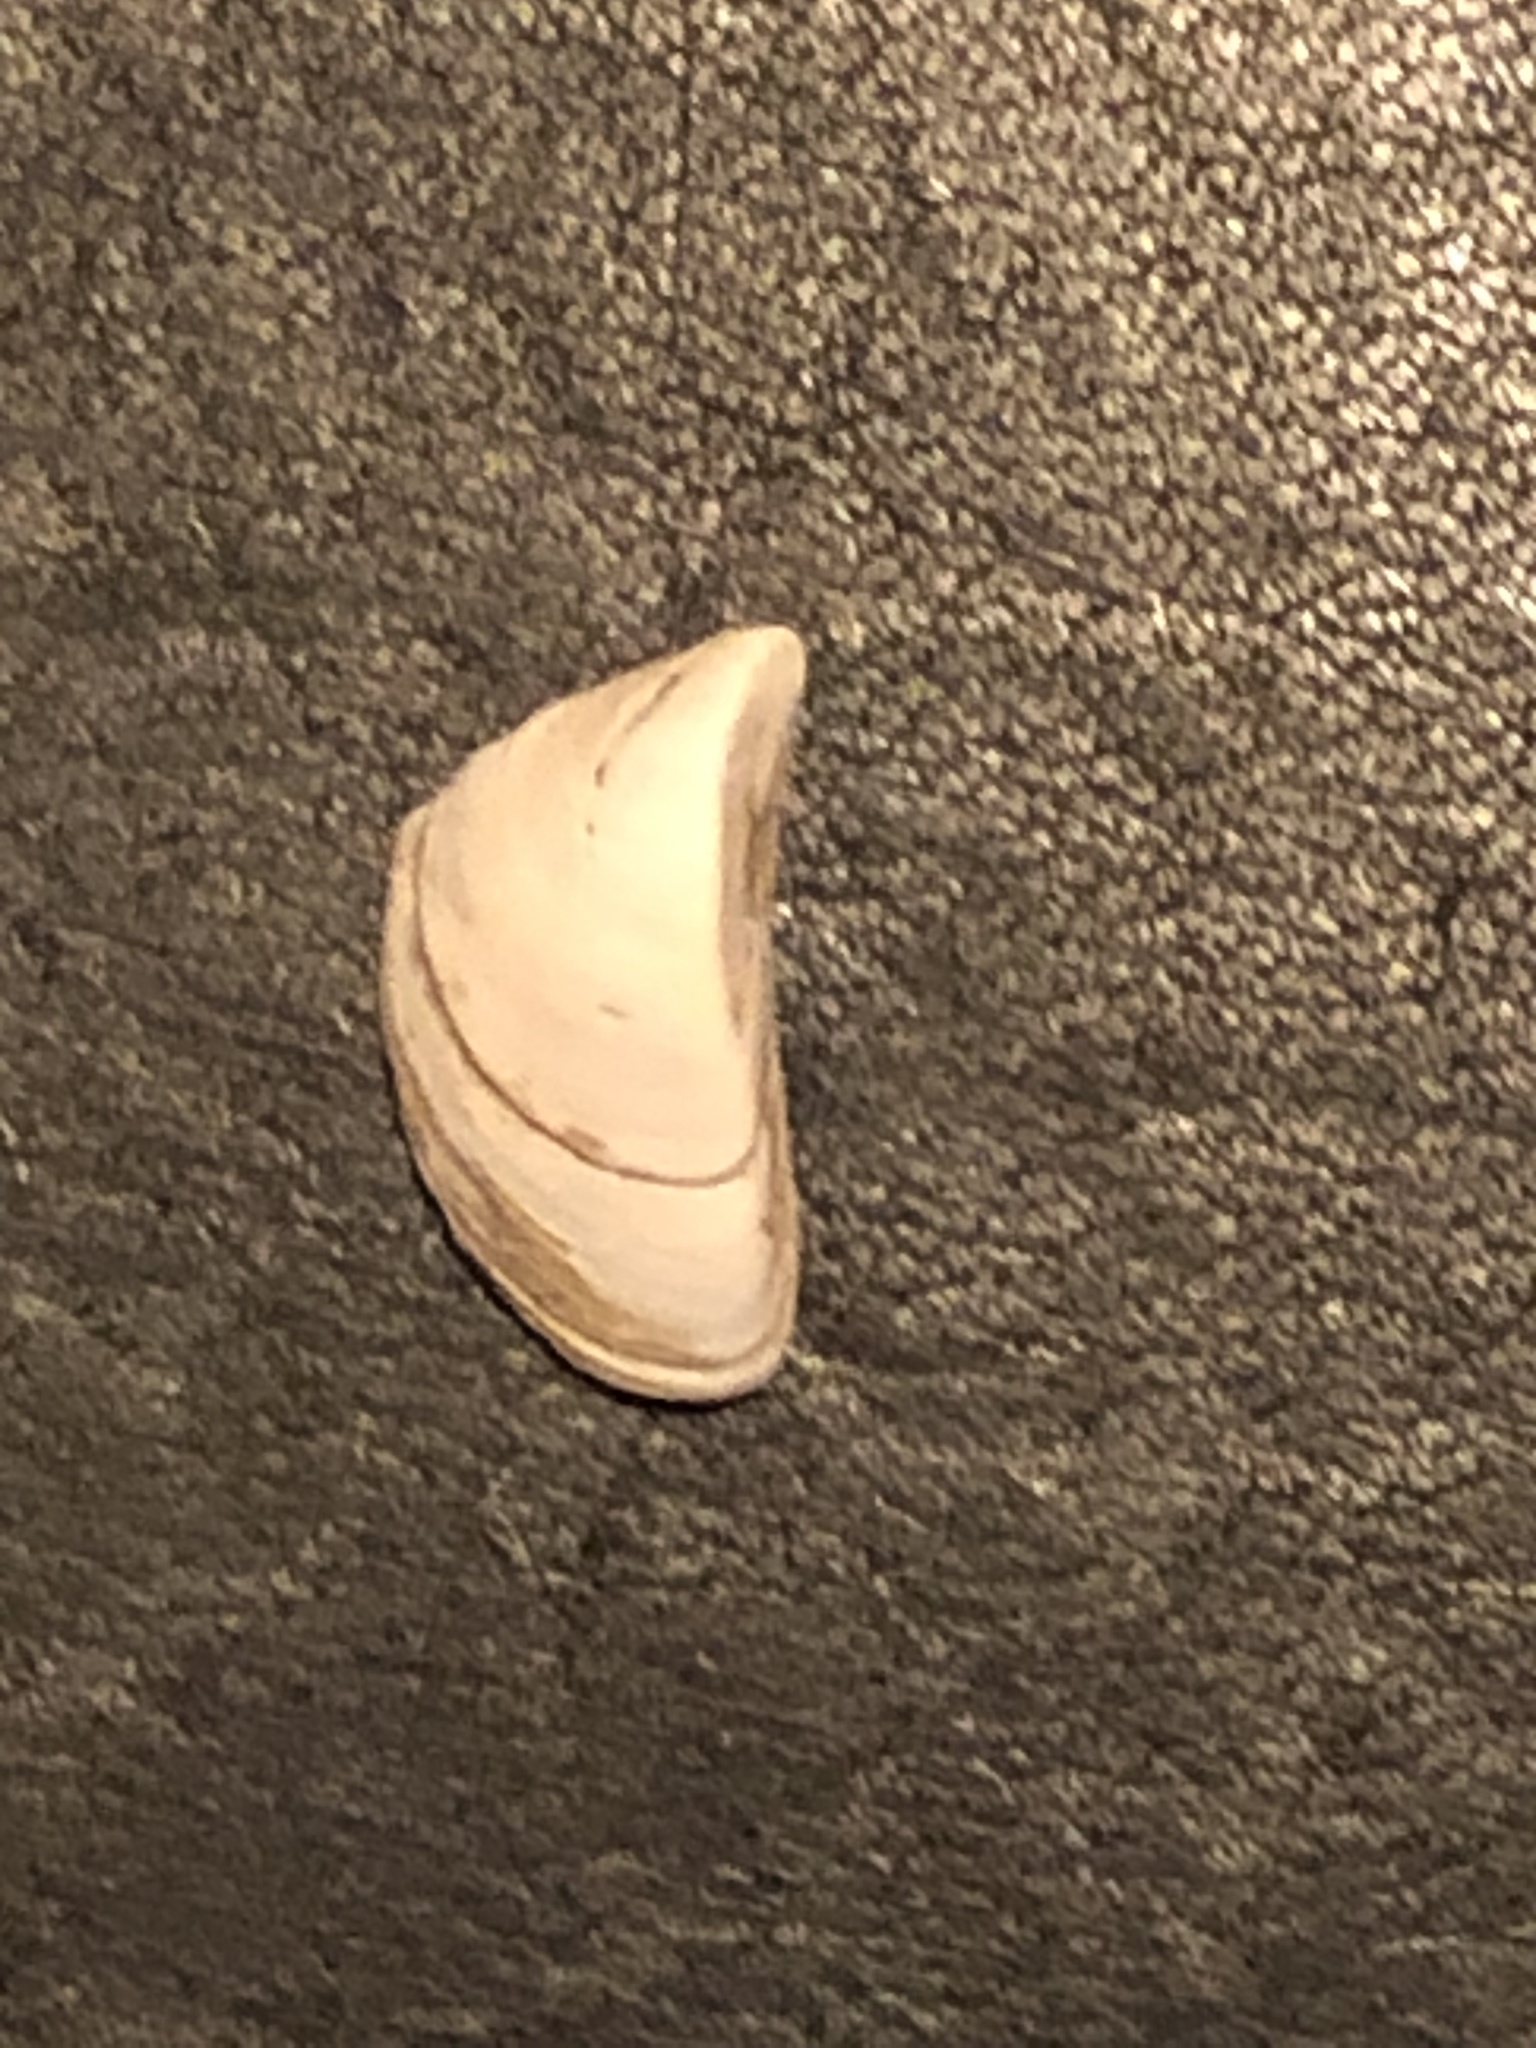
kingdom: Animalia
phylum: Mollusca
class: Bivalvia
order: Myida
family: Dreissenidae
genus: Dreissena
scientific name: Dreissena polymorpha
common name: Zebra mussel
